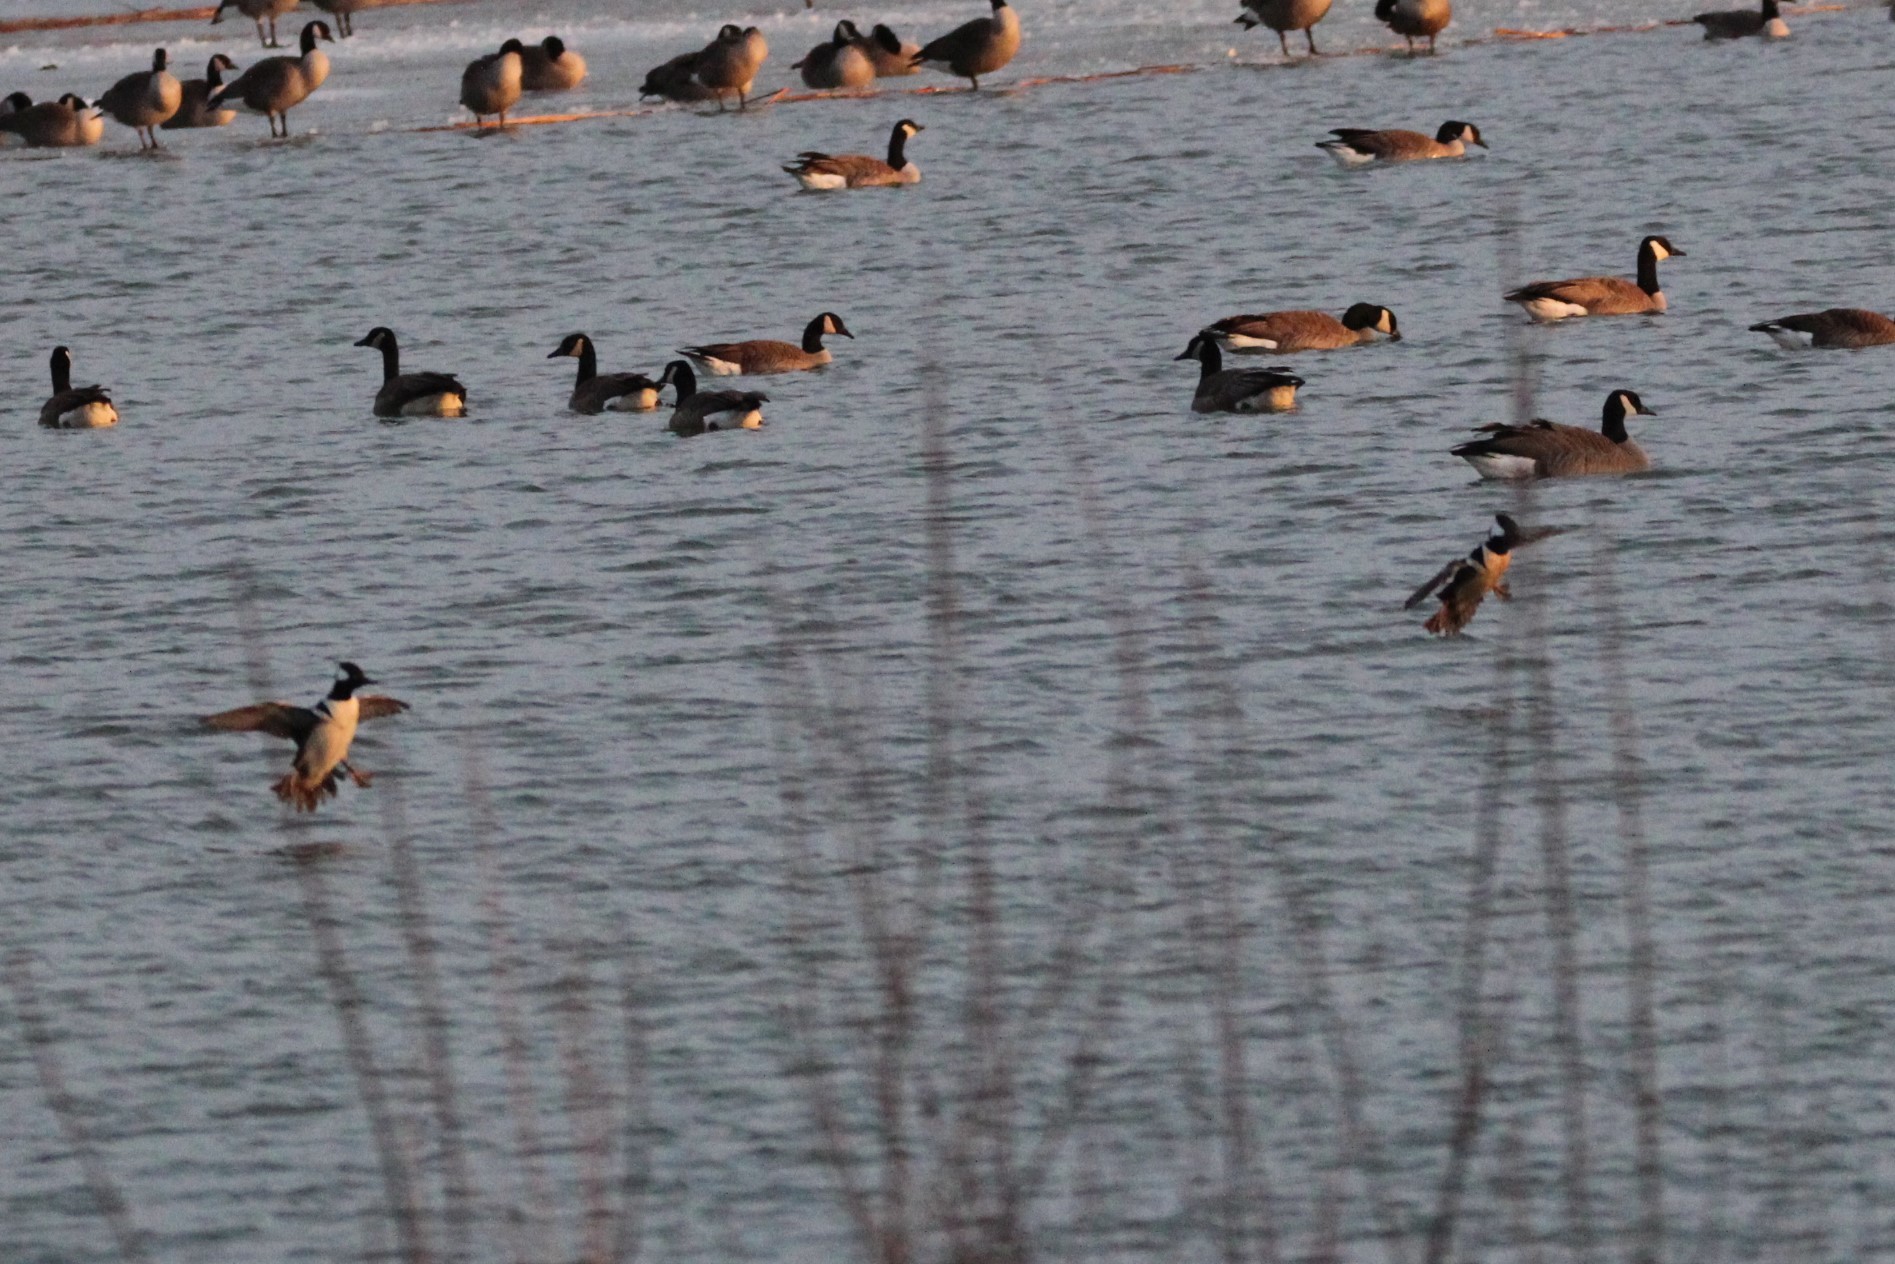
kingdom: Animalia
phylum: Chordata
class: Aves
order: Anseriformes
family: Anatidae
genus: Lophodytes
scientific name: Lophodytes cucullatus
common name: Hooded merganser
